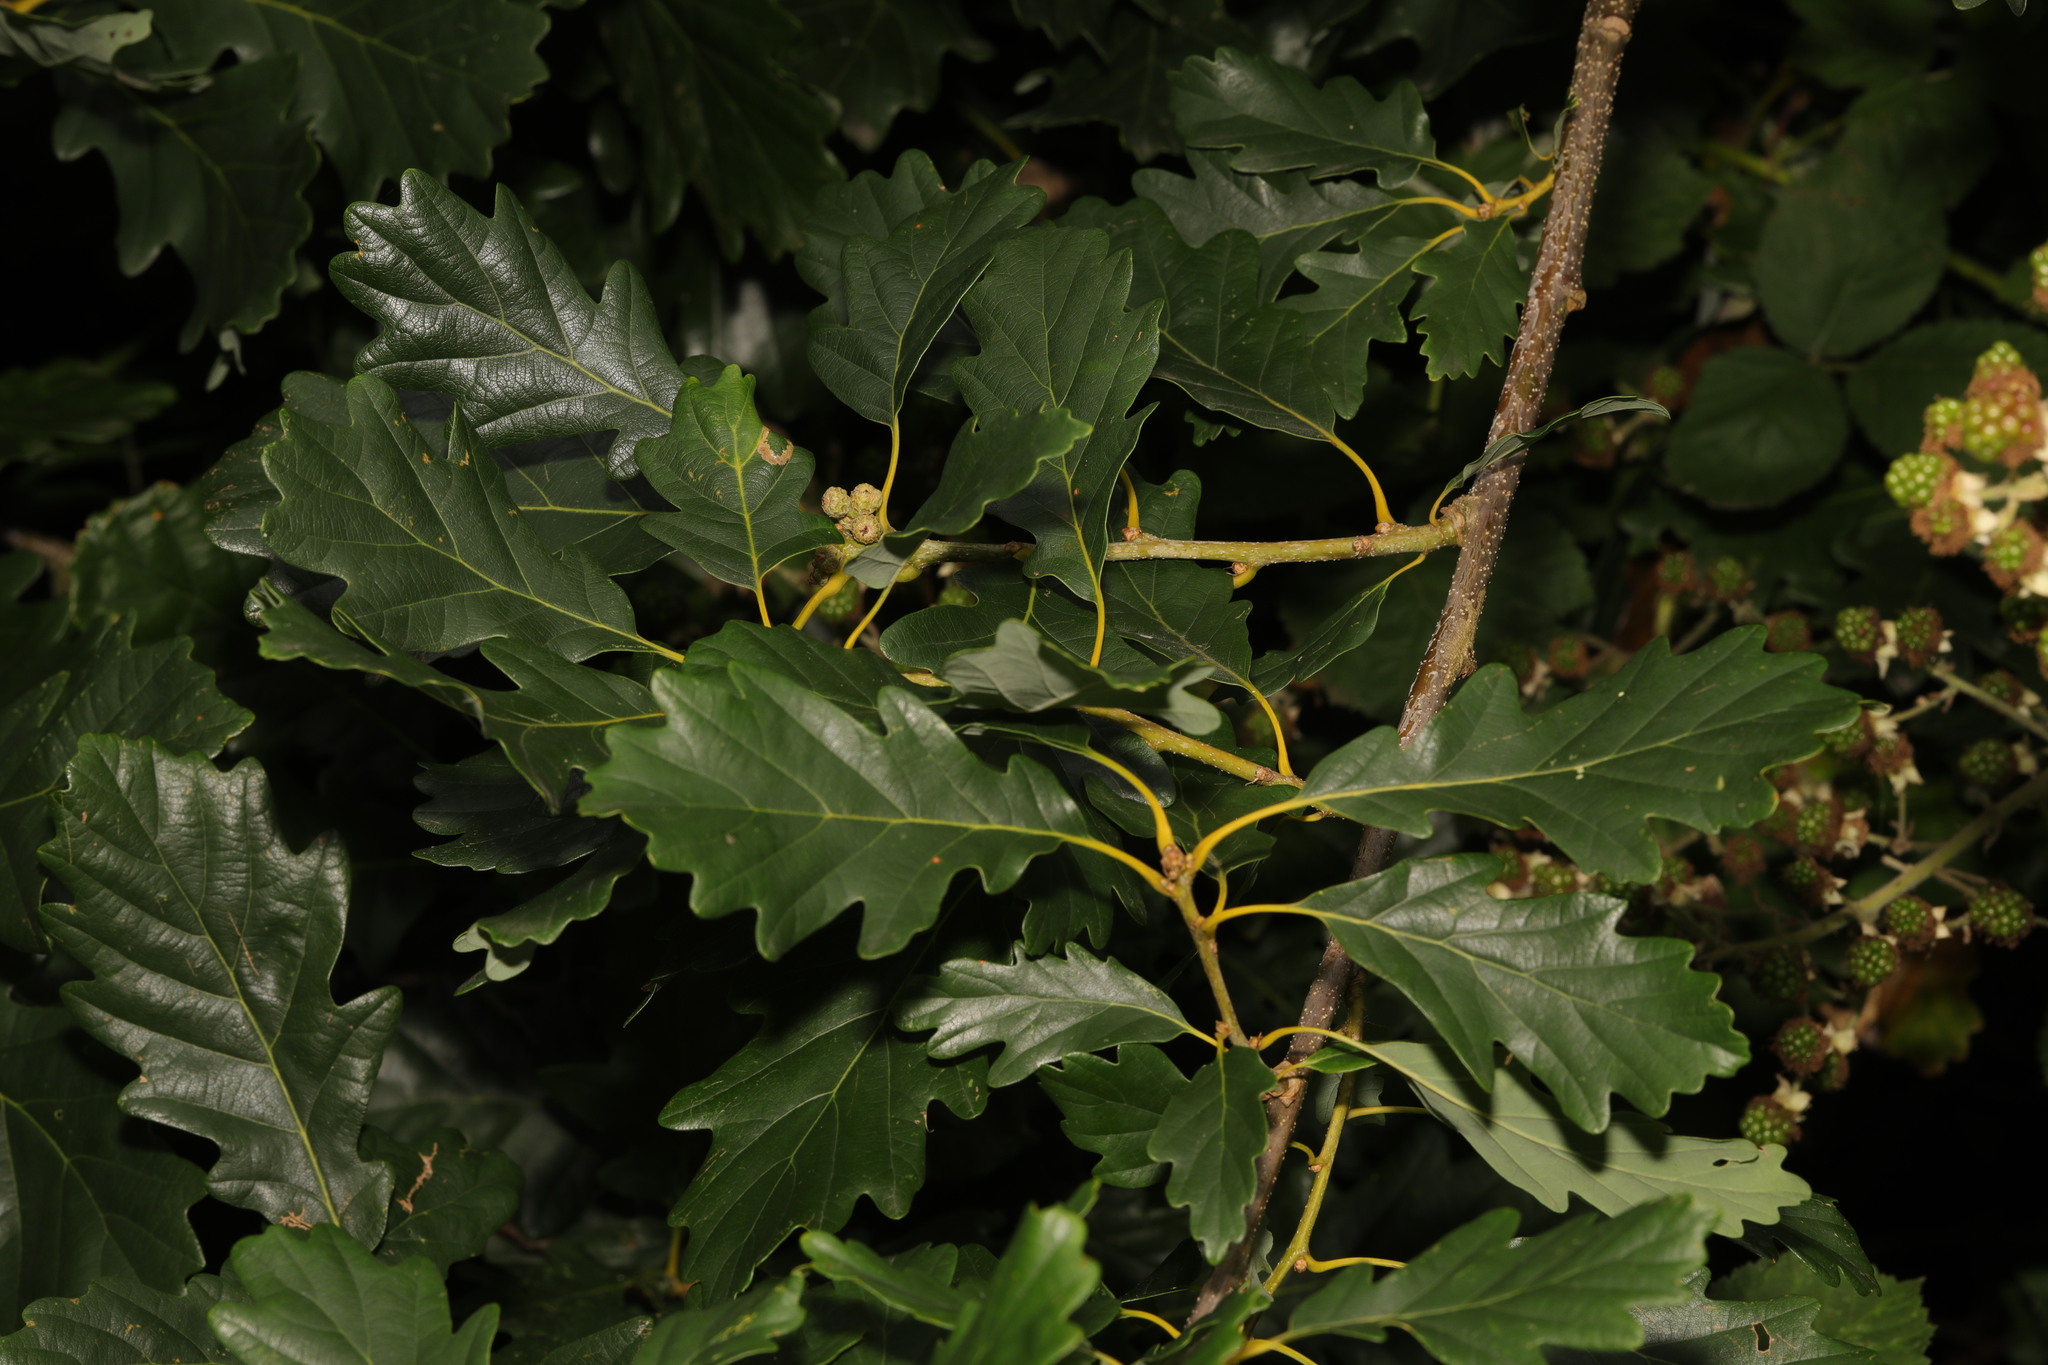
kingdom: Plantae
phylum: Tracheophyta
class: Magnoliopsida
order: Fagales
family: Fagaceae
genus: Quercus
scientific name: Quercus robur
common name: Pedunculate oak
